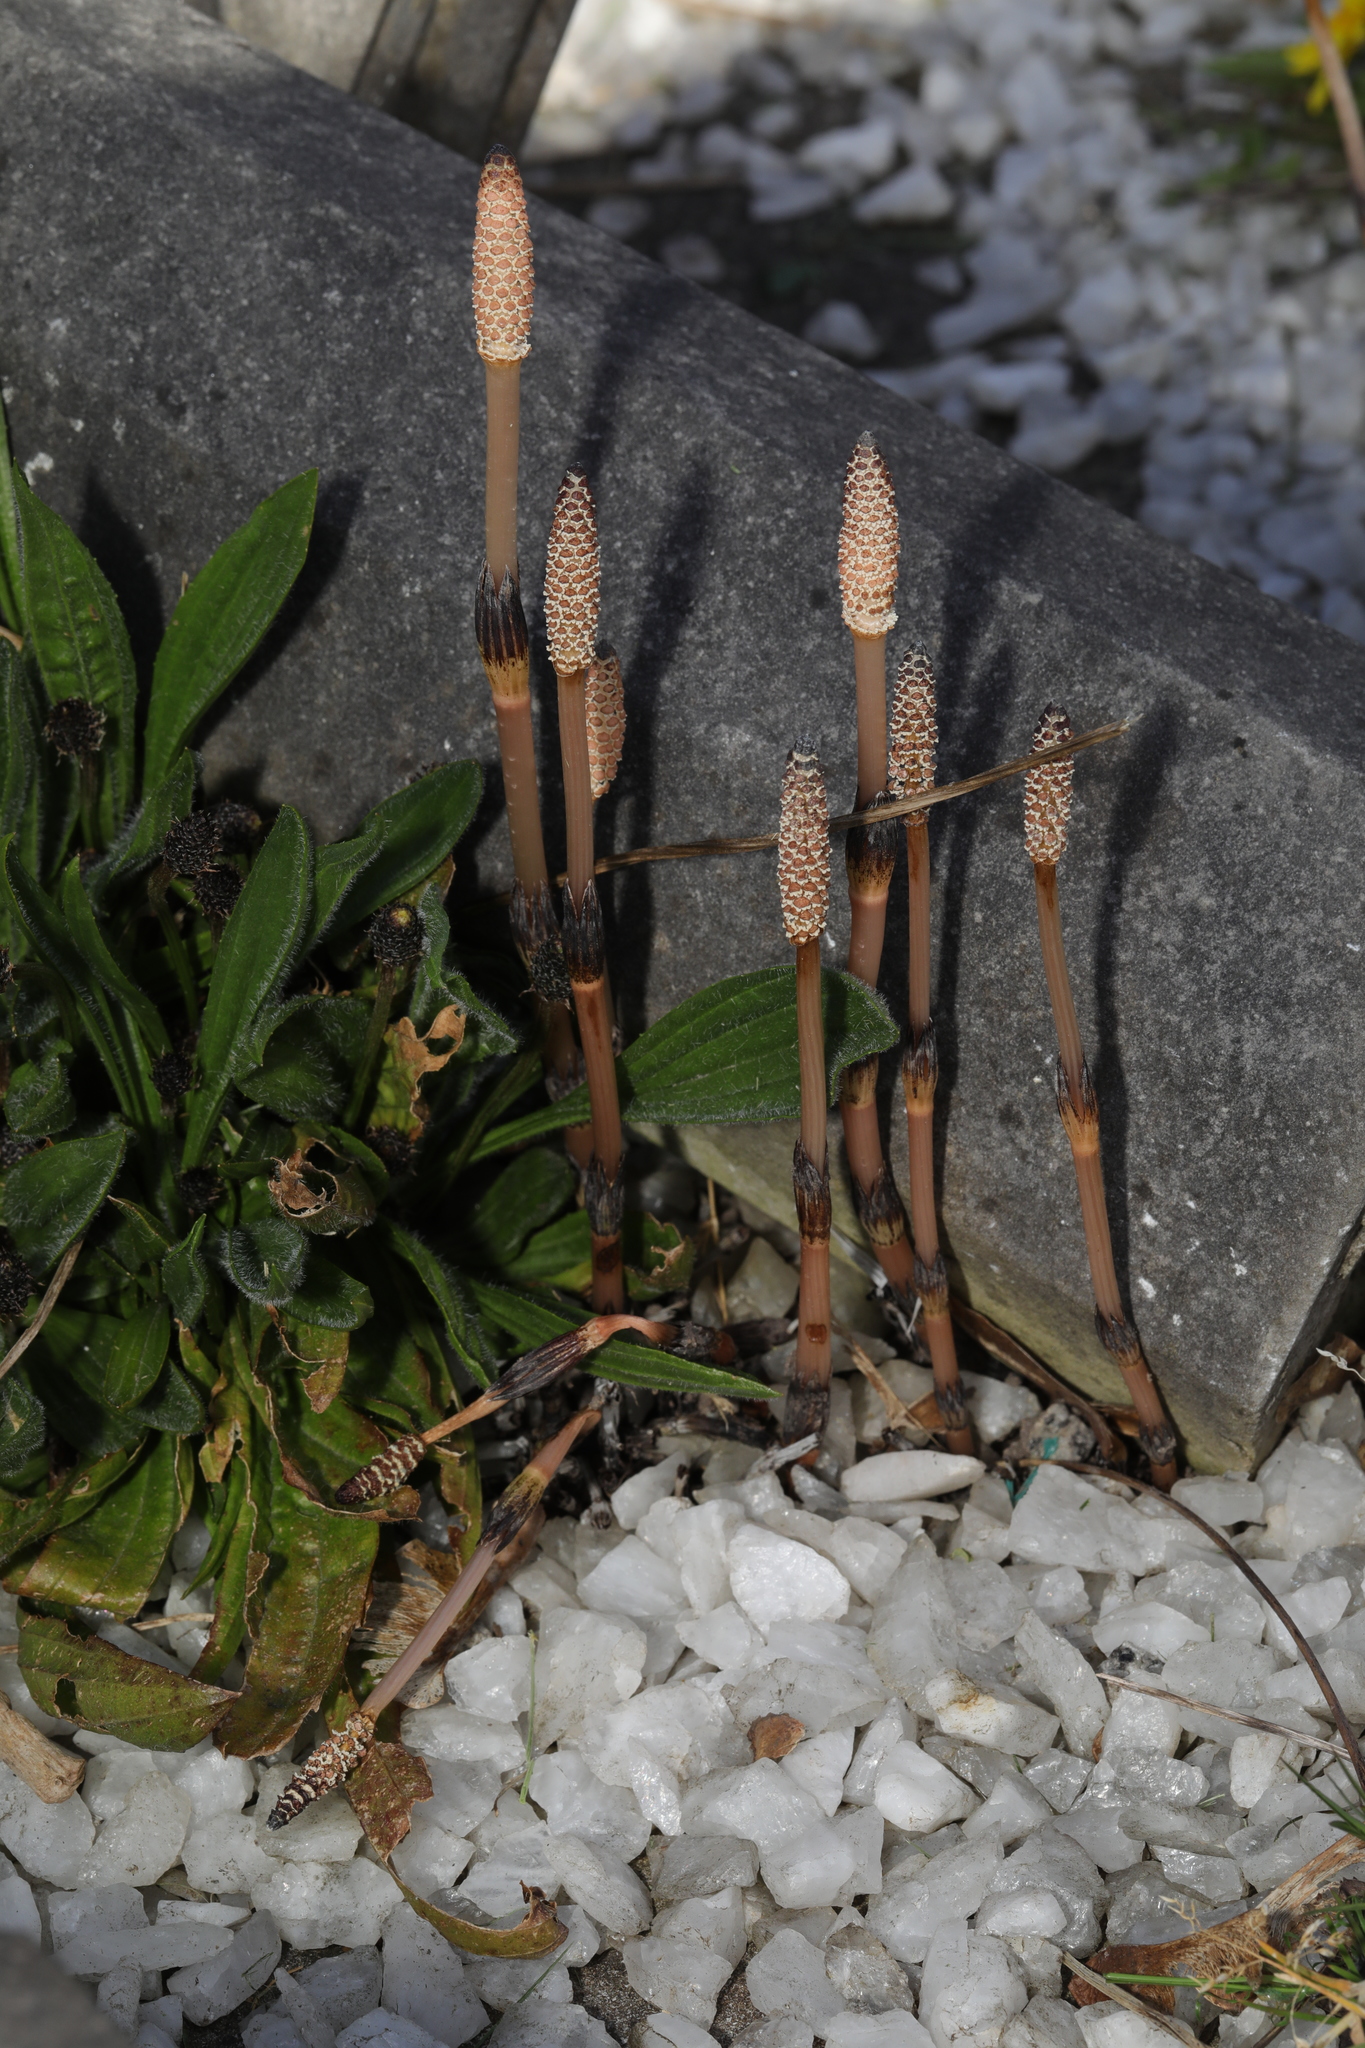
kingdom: Plantae
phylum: Tracheophyta
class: Polypodiopsida
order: Equisetales
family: Equisetaceae
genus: Equisetum
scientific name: Equisetum arvense
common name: Field horsetail
